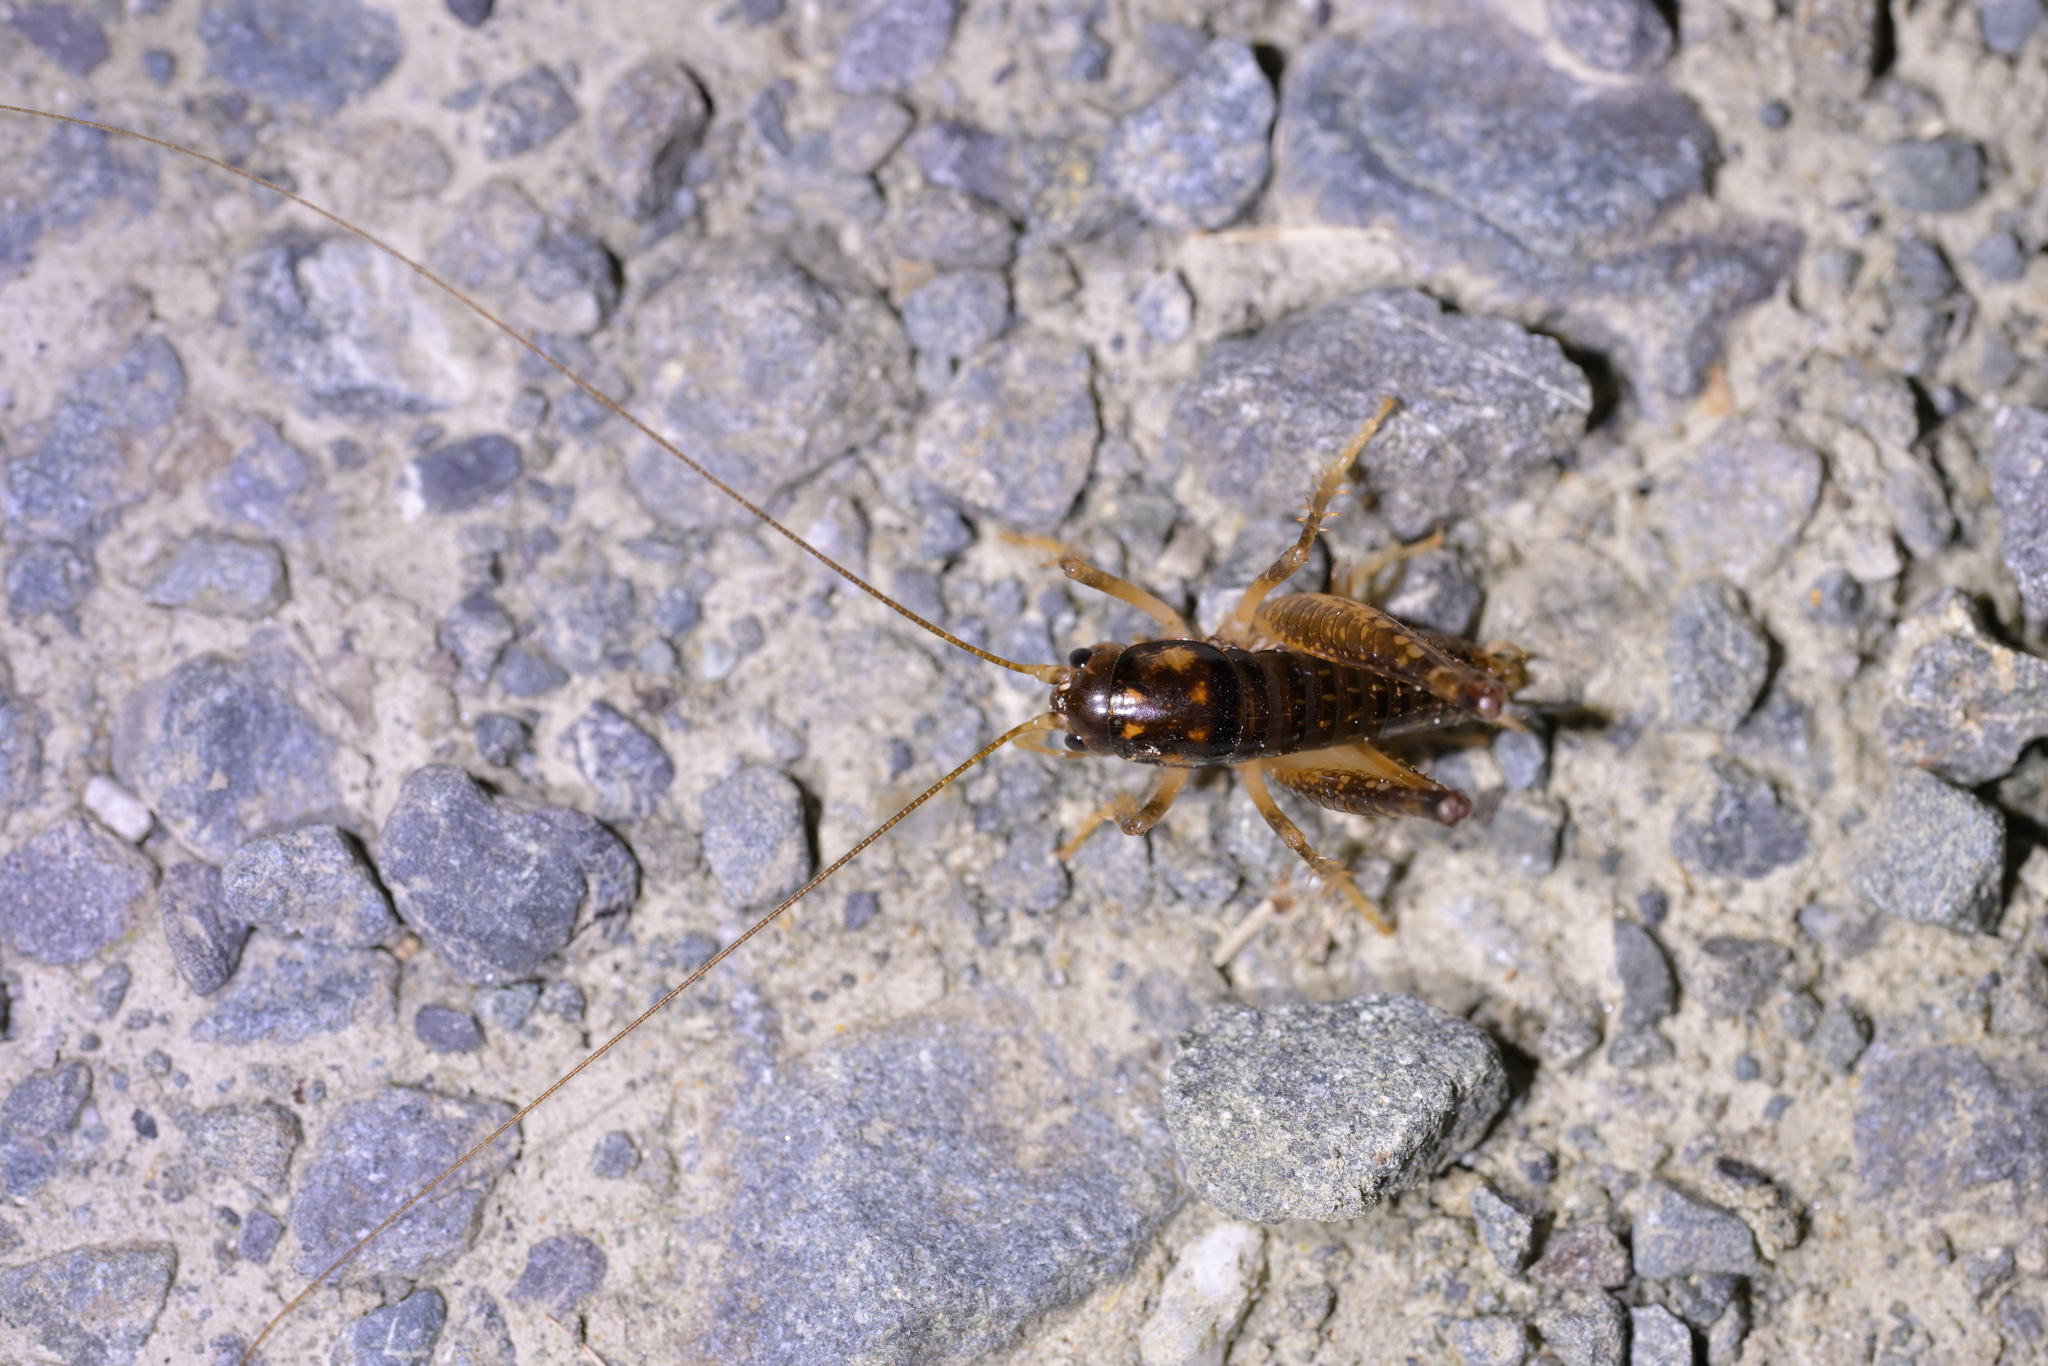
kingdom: Animalia
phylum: Arthropoda
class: Insecta
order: Orthoptera
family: Anostostomatidae
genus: Hemiandrus
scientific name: Hemiandrus luna
